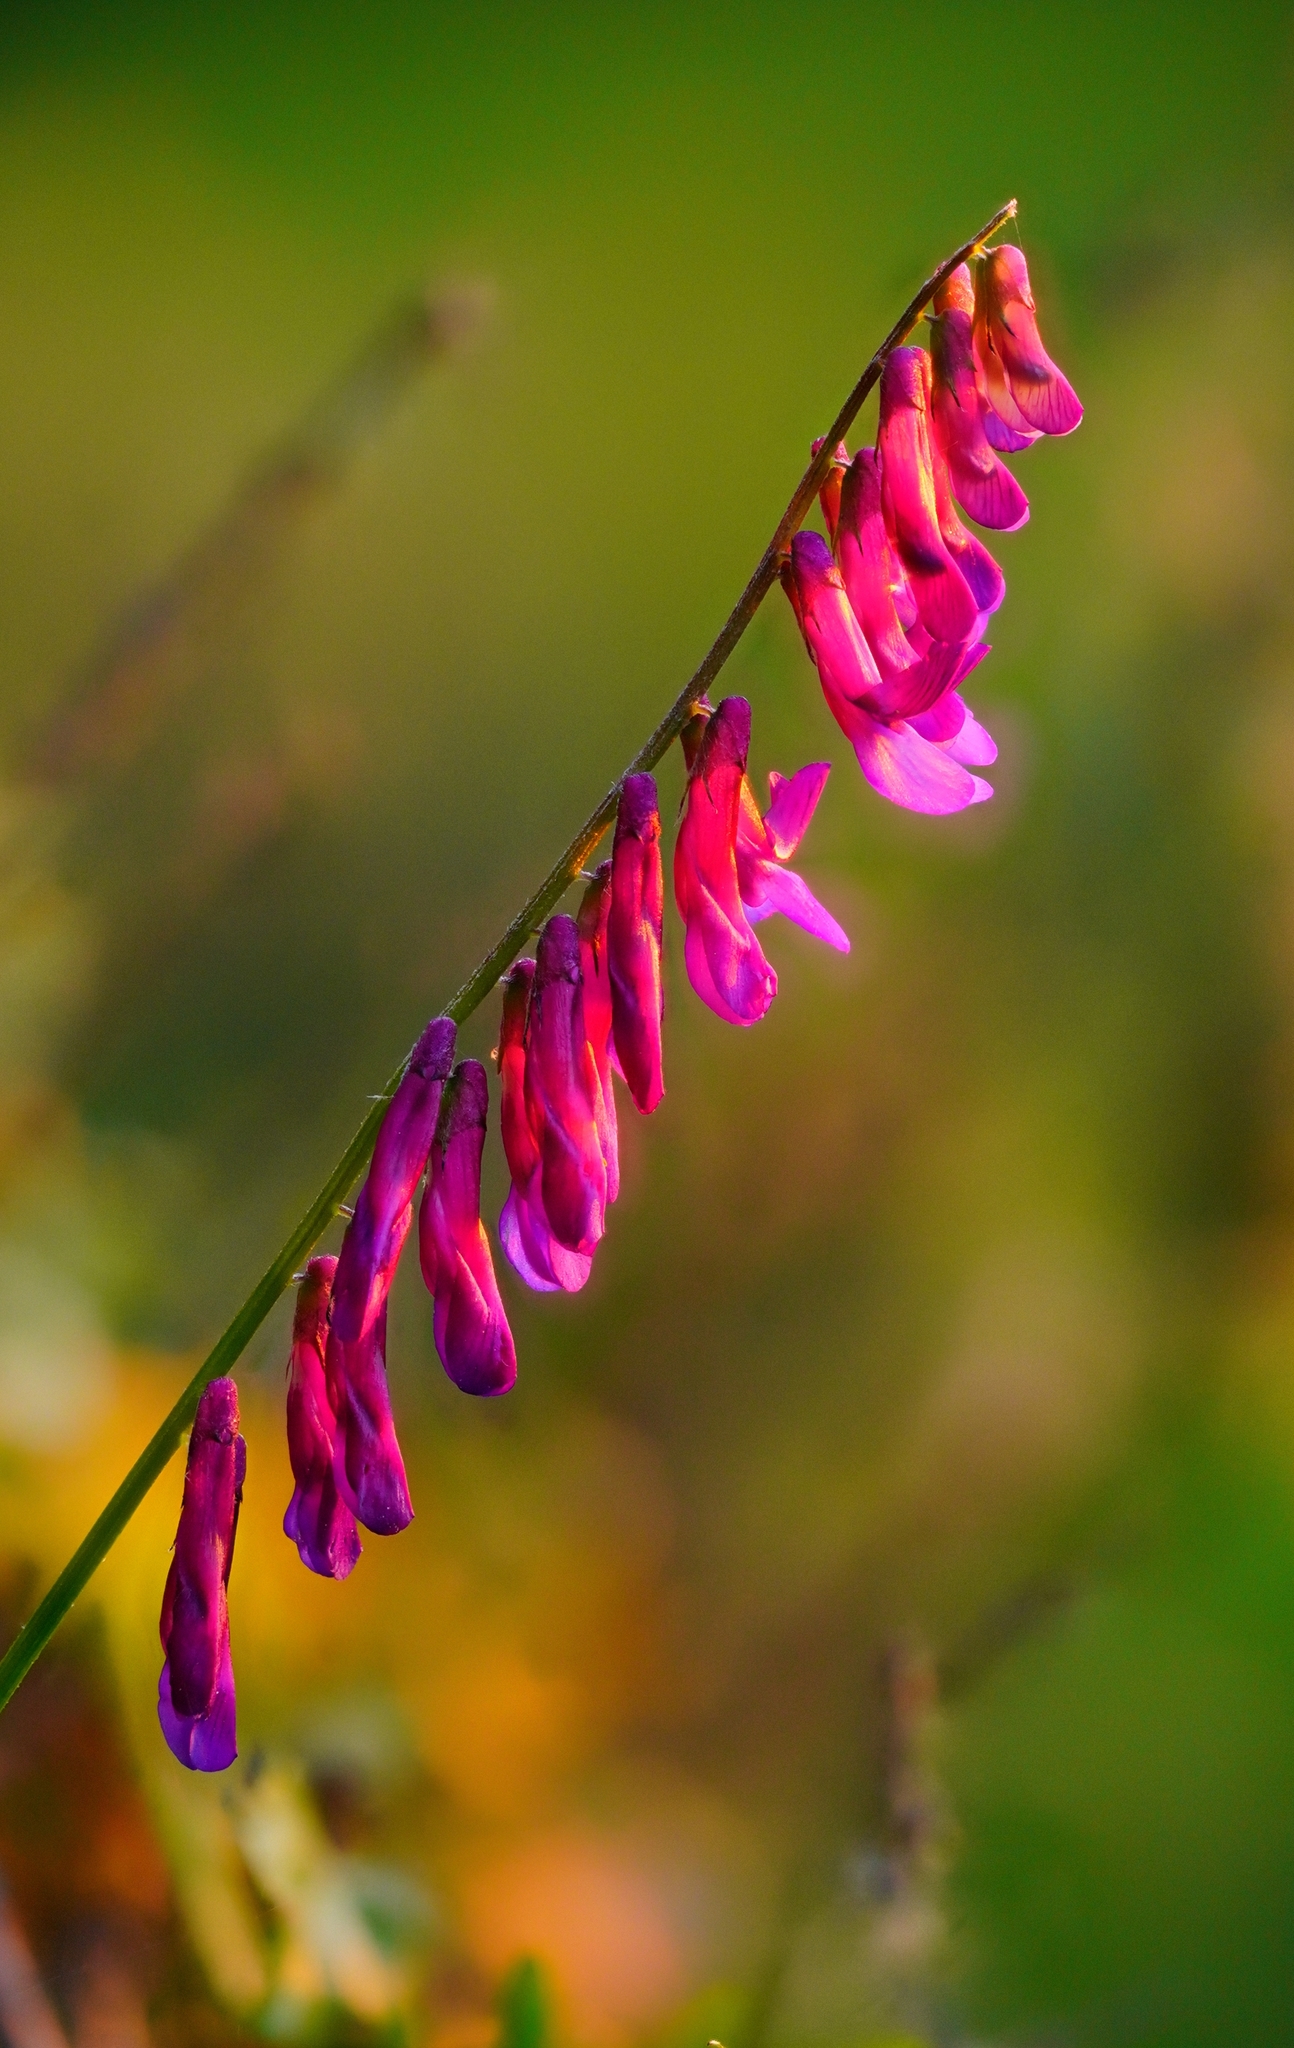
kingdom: Plantae
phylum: Tracheophyta
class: Magnoliopsida
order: Fabales
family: Fabaceae
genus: Vicia
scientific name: Vicia villosa
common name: Fodder vetch
